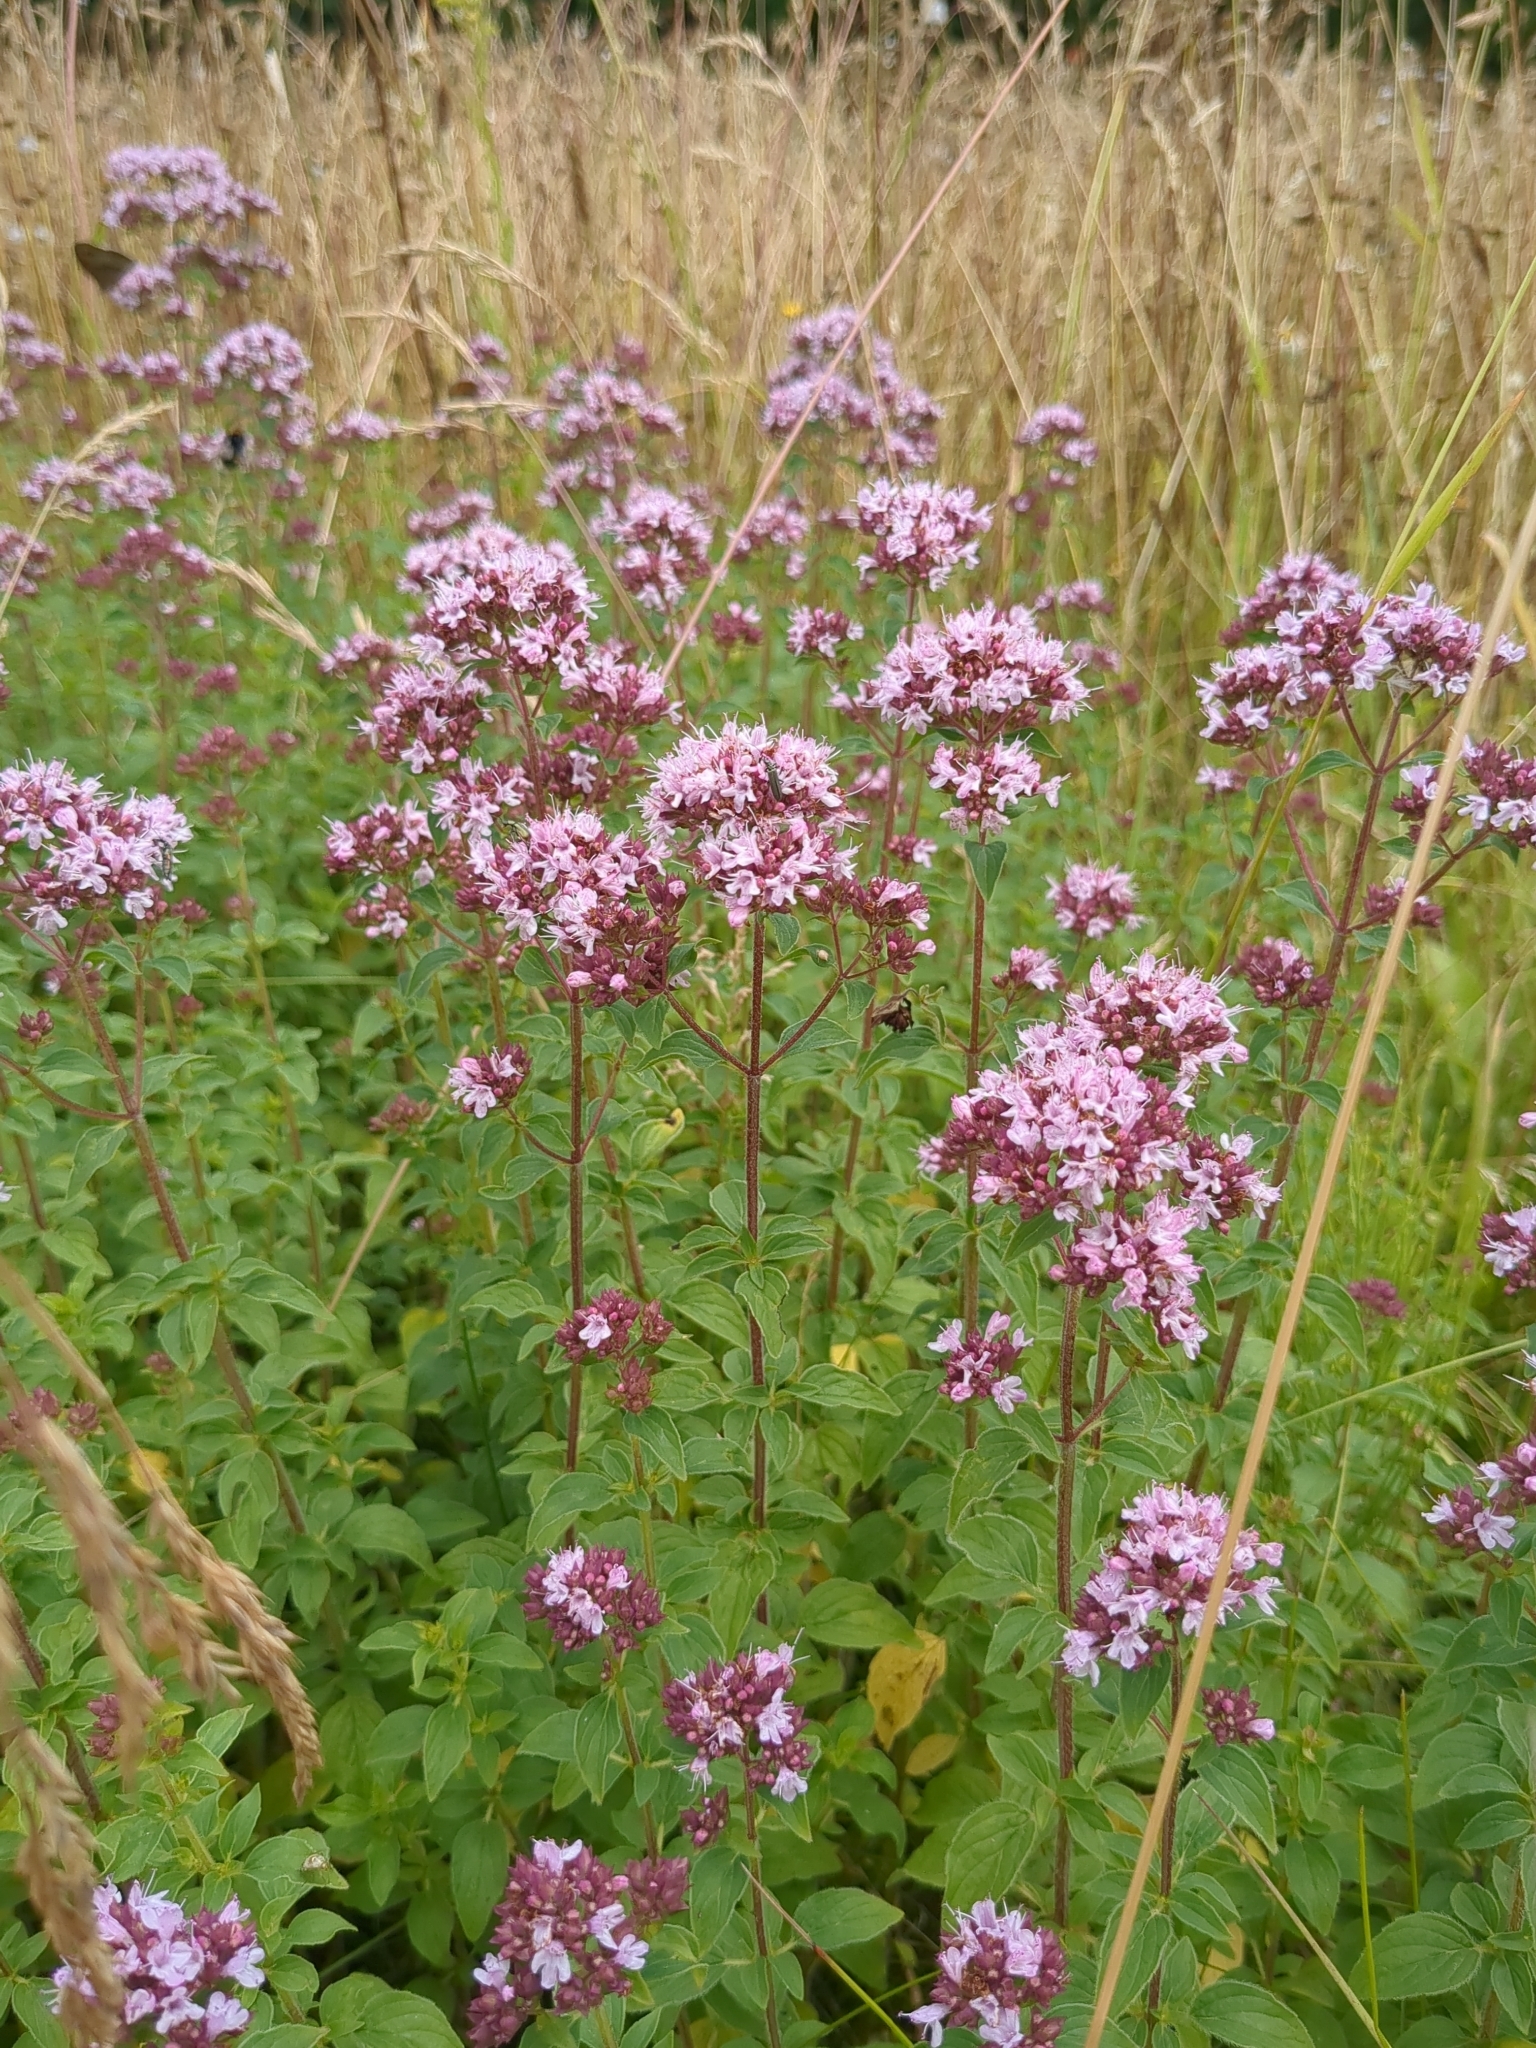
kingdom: Plantae
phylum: Tracheophyta
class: Magnoliopsida
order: Lamiales
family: Lamiaceae
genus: Origanum
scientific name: Origanum vulgare
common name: Wild marjoram
